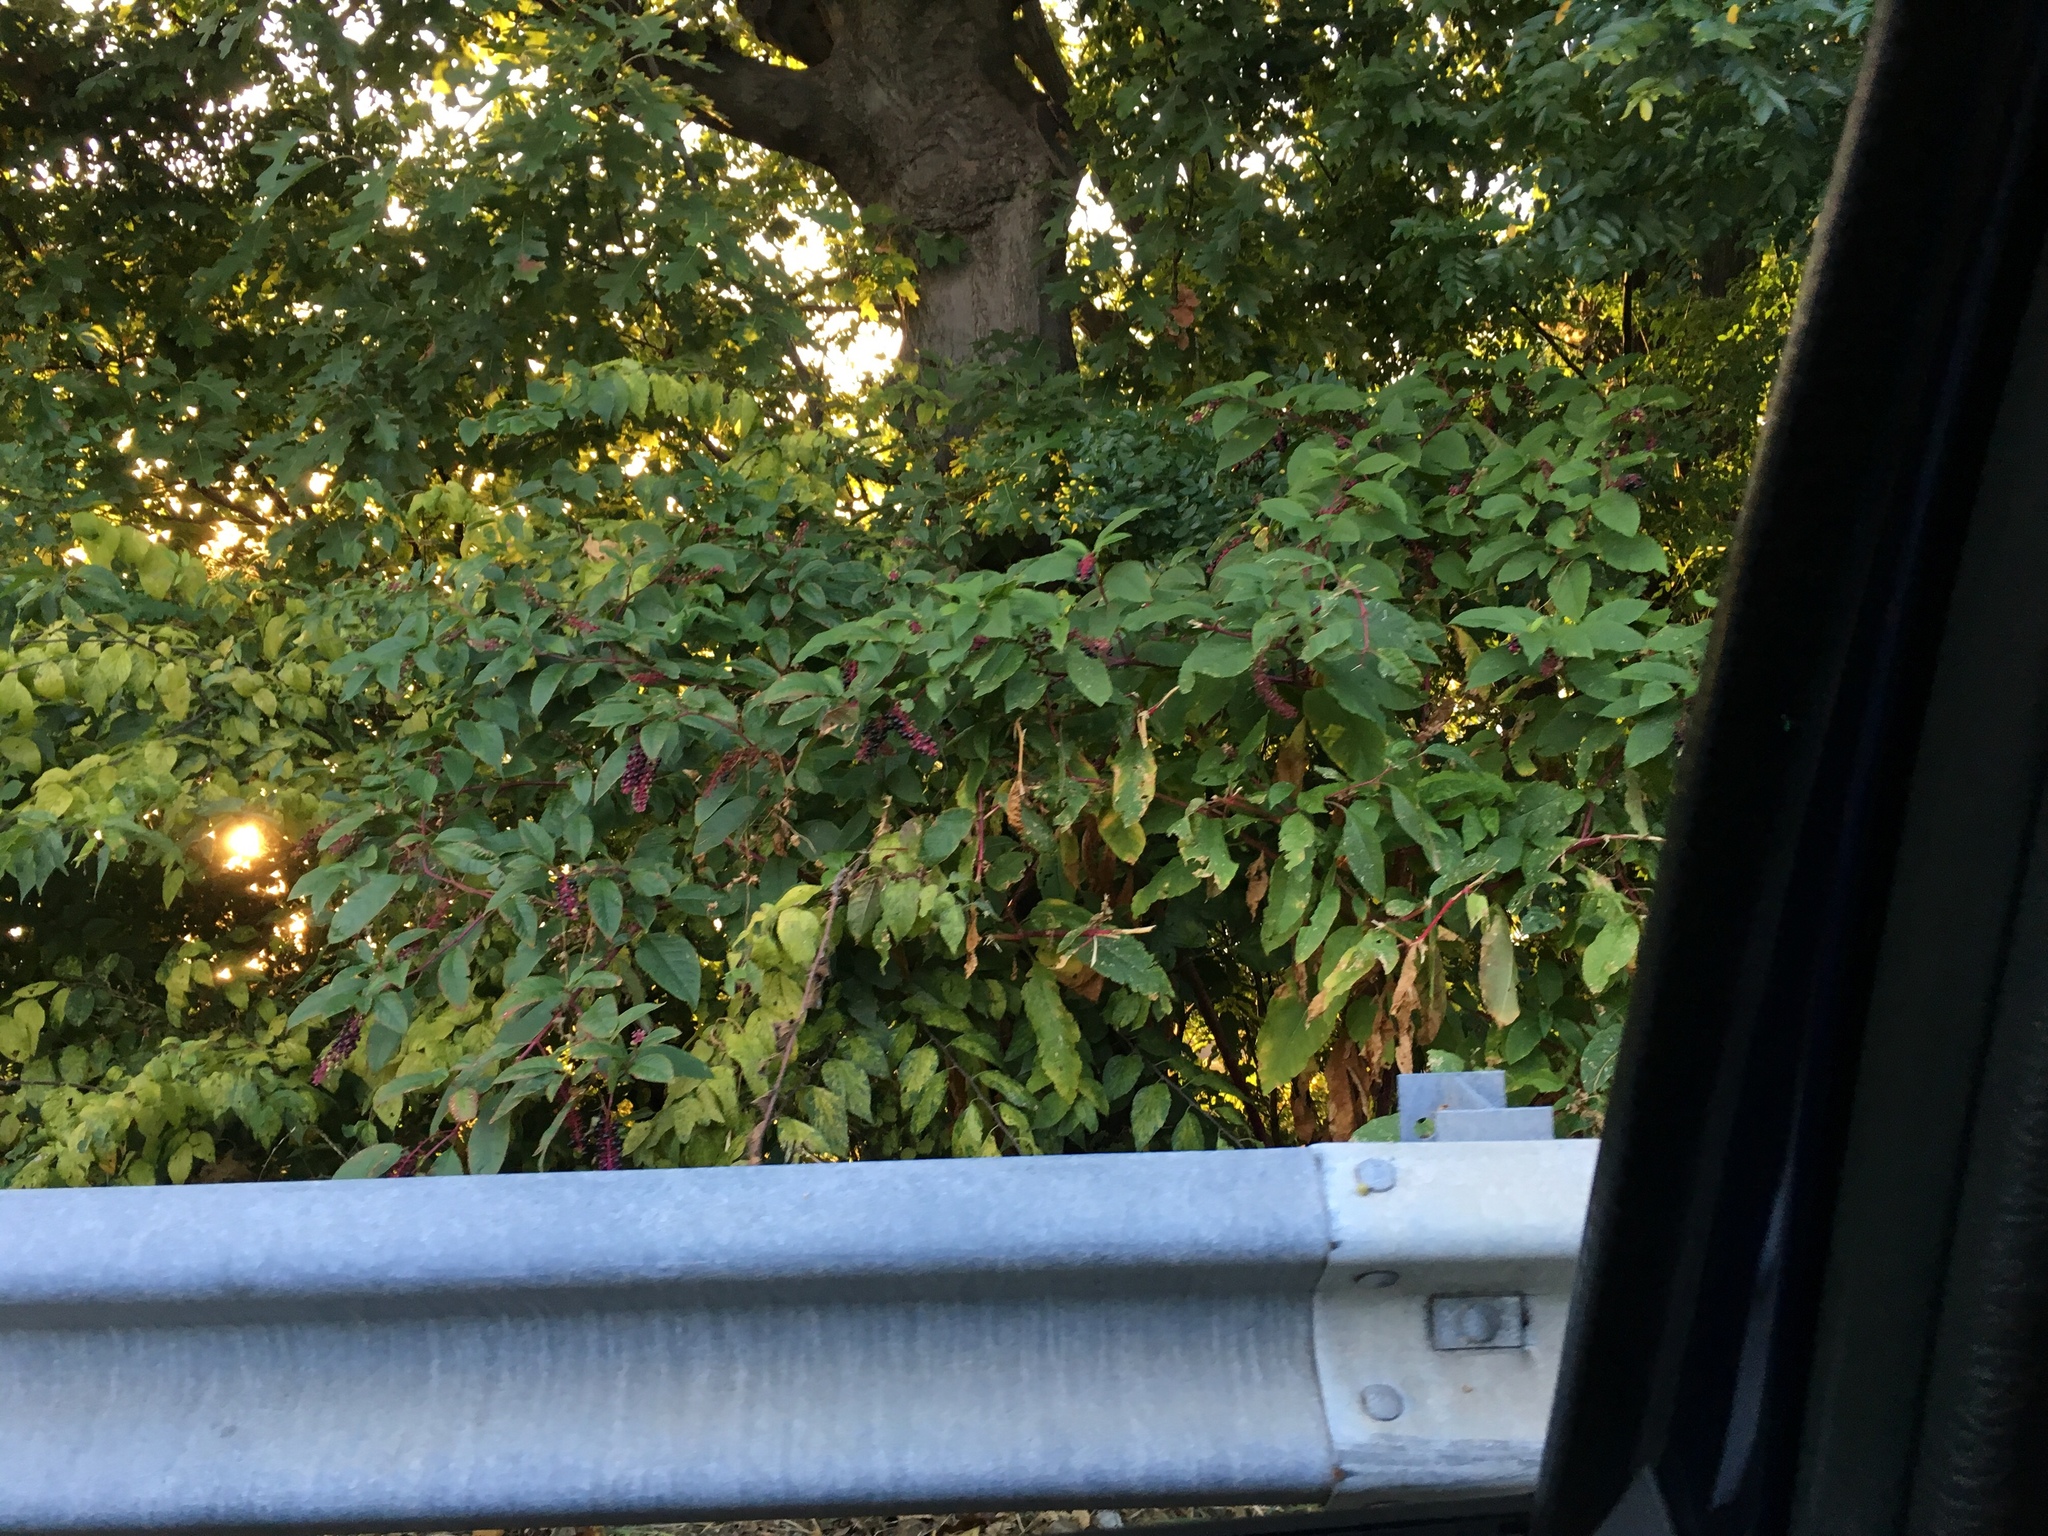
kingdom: Plantae
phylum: Tracheophyta
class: Magnoliopsida
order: Caryophyllales
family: Phytolaccaceae
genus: Phytolacca
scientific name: Phytolacca americana
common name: American pokeweed
